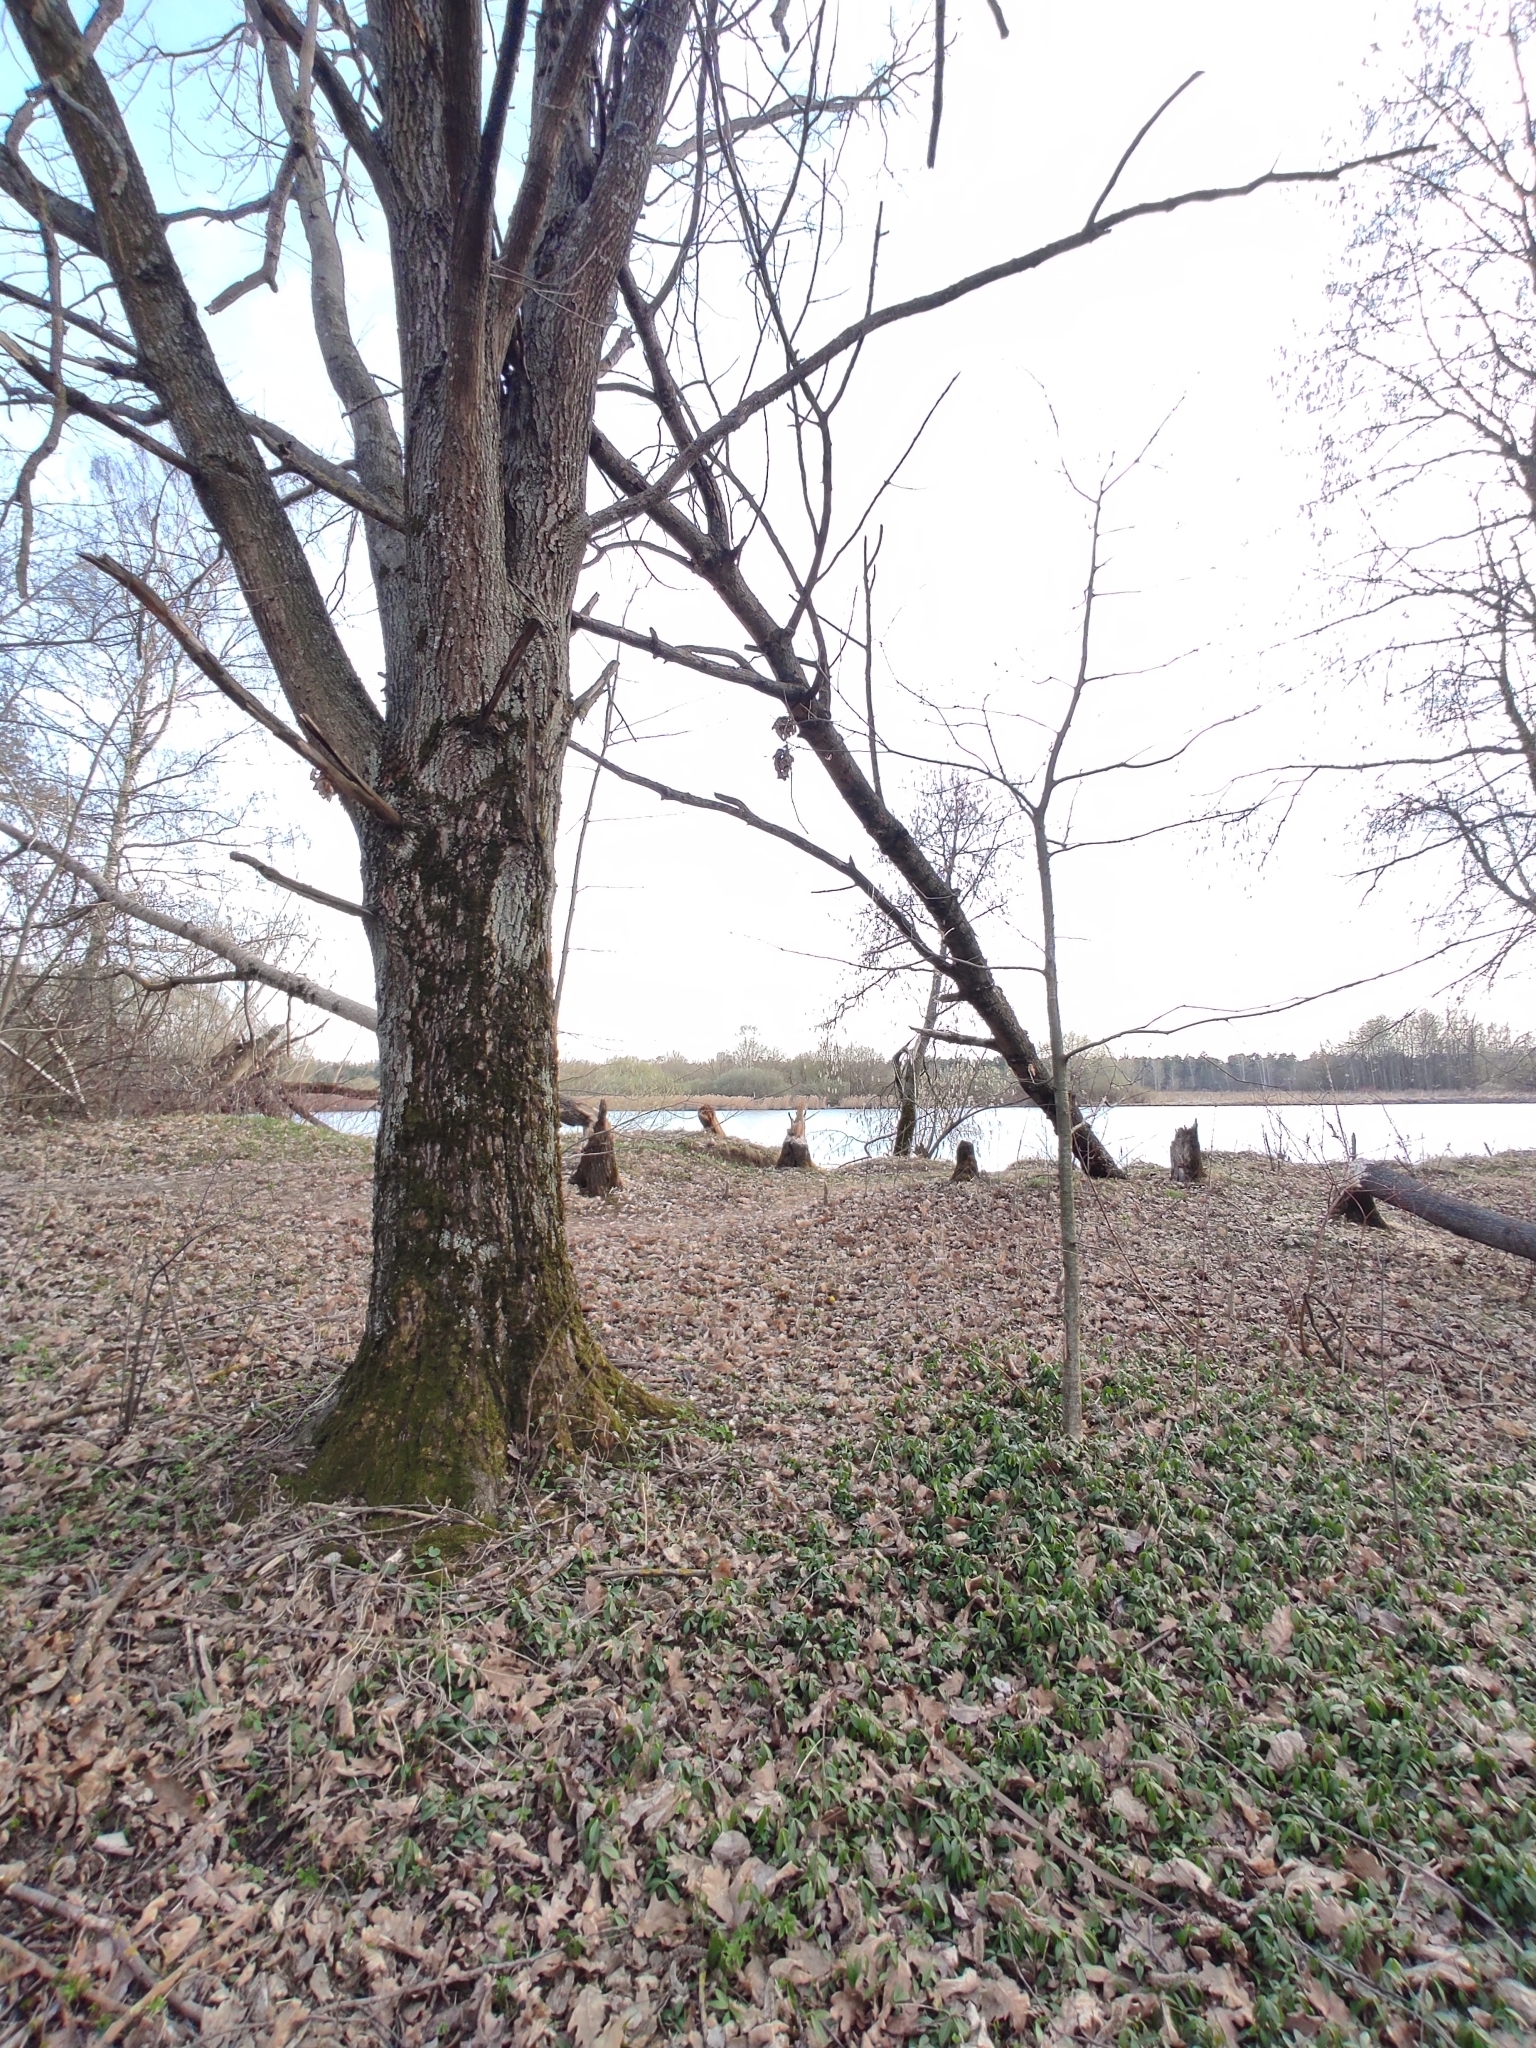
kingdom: Plantae
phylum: Tracheophyta
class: Magnoliopsida
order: Ranunculales
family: Ranunculaceae
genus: Anemone
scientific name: Anemone altaica
